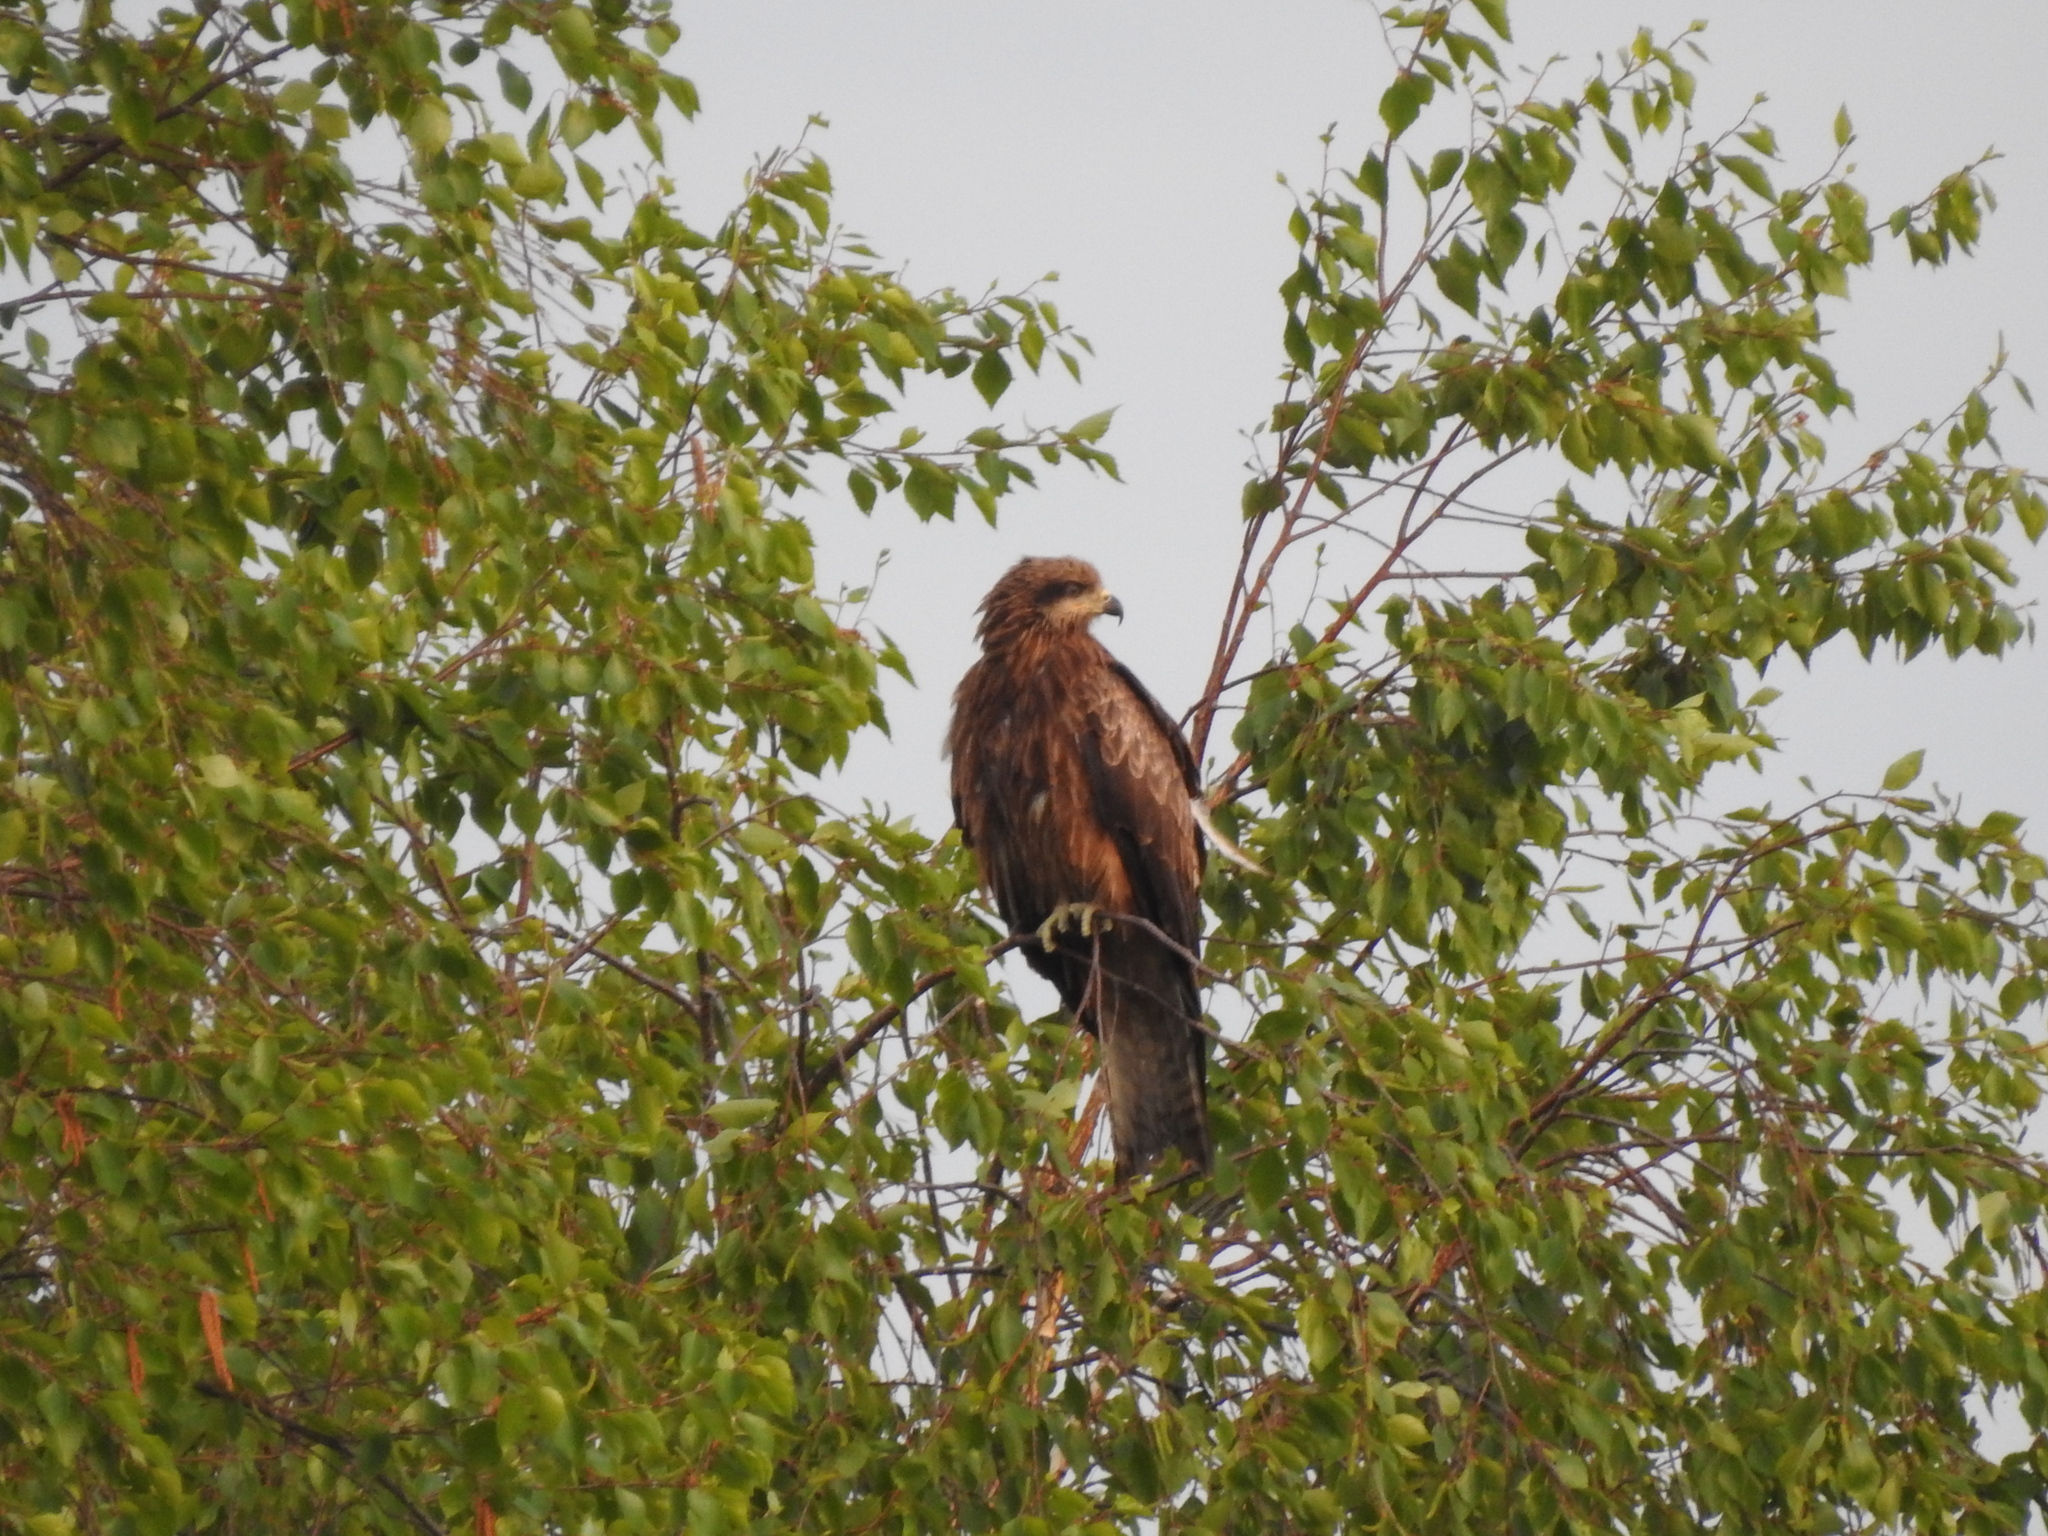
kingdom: Animalia
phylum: Chordata
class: Aves
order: Accipitriformes
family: Accipitridae
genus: Milvus
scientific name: Milvus migrans
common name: Black kite
